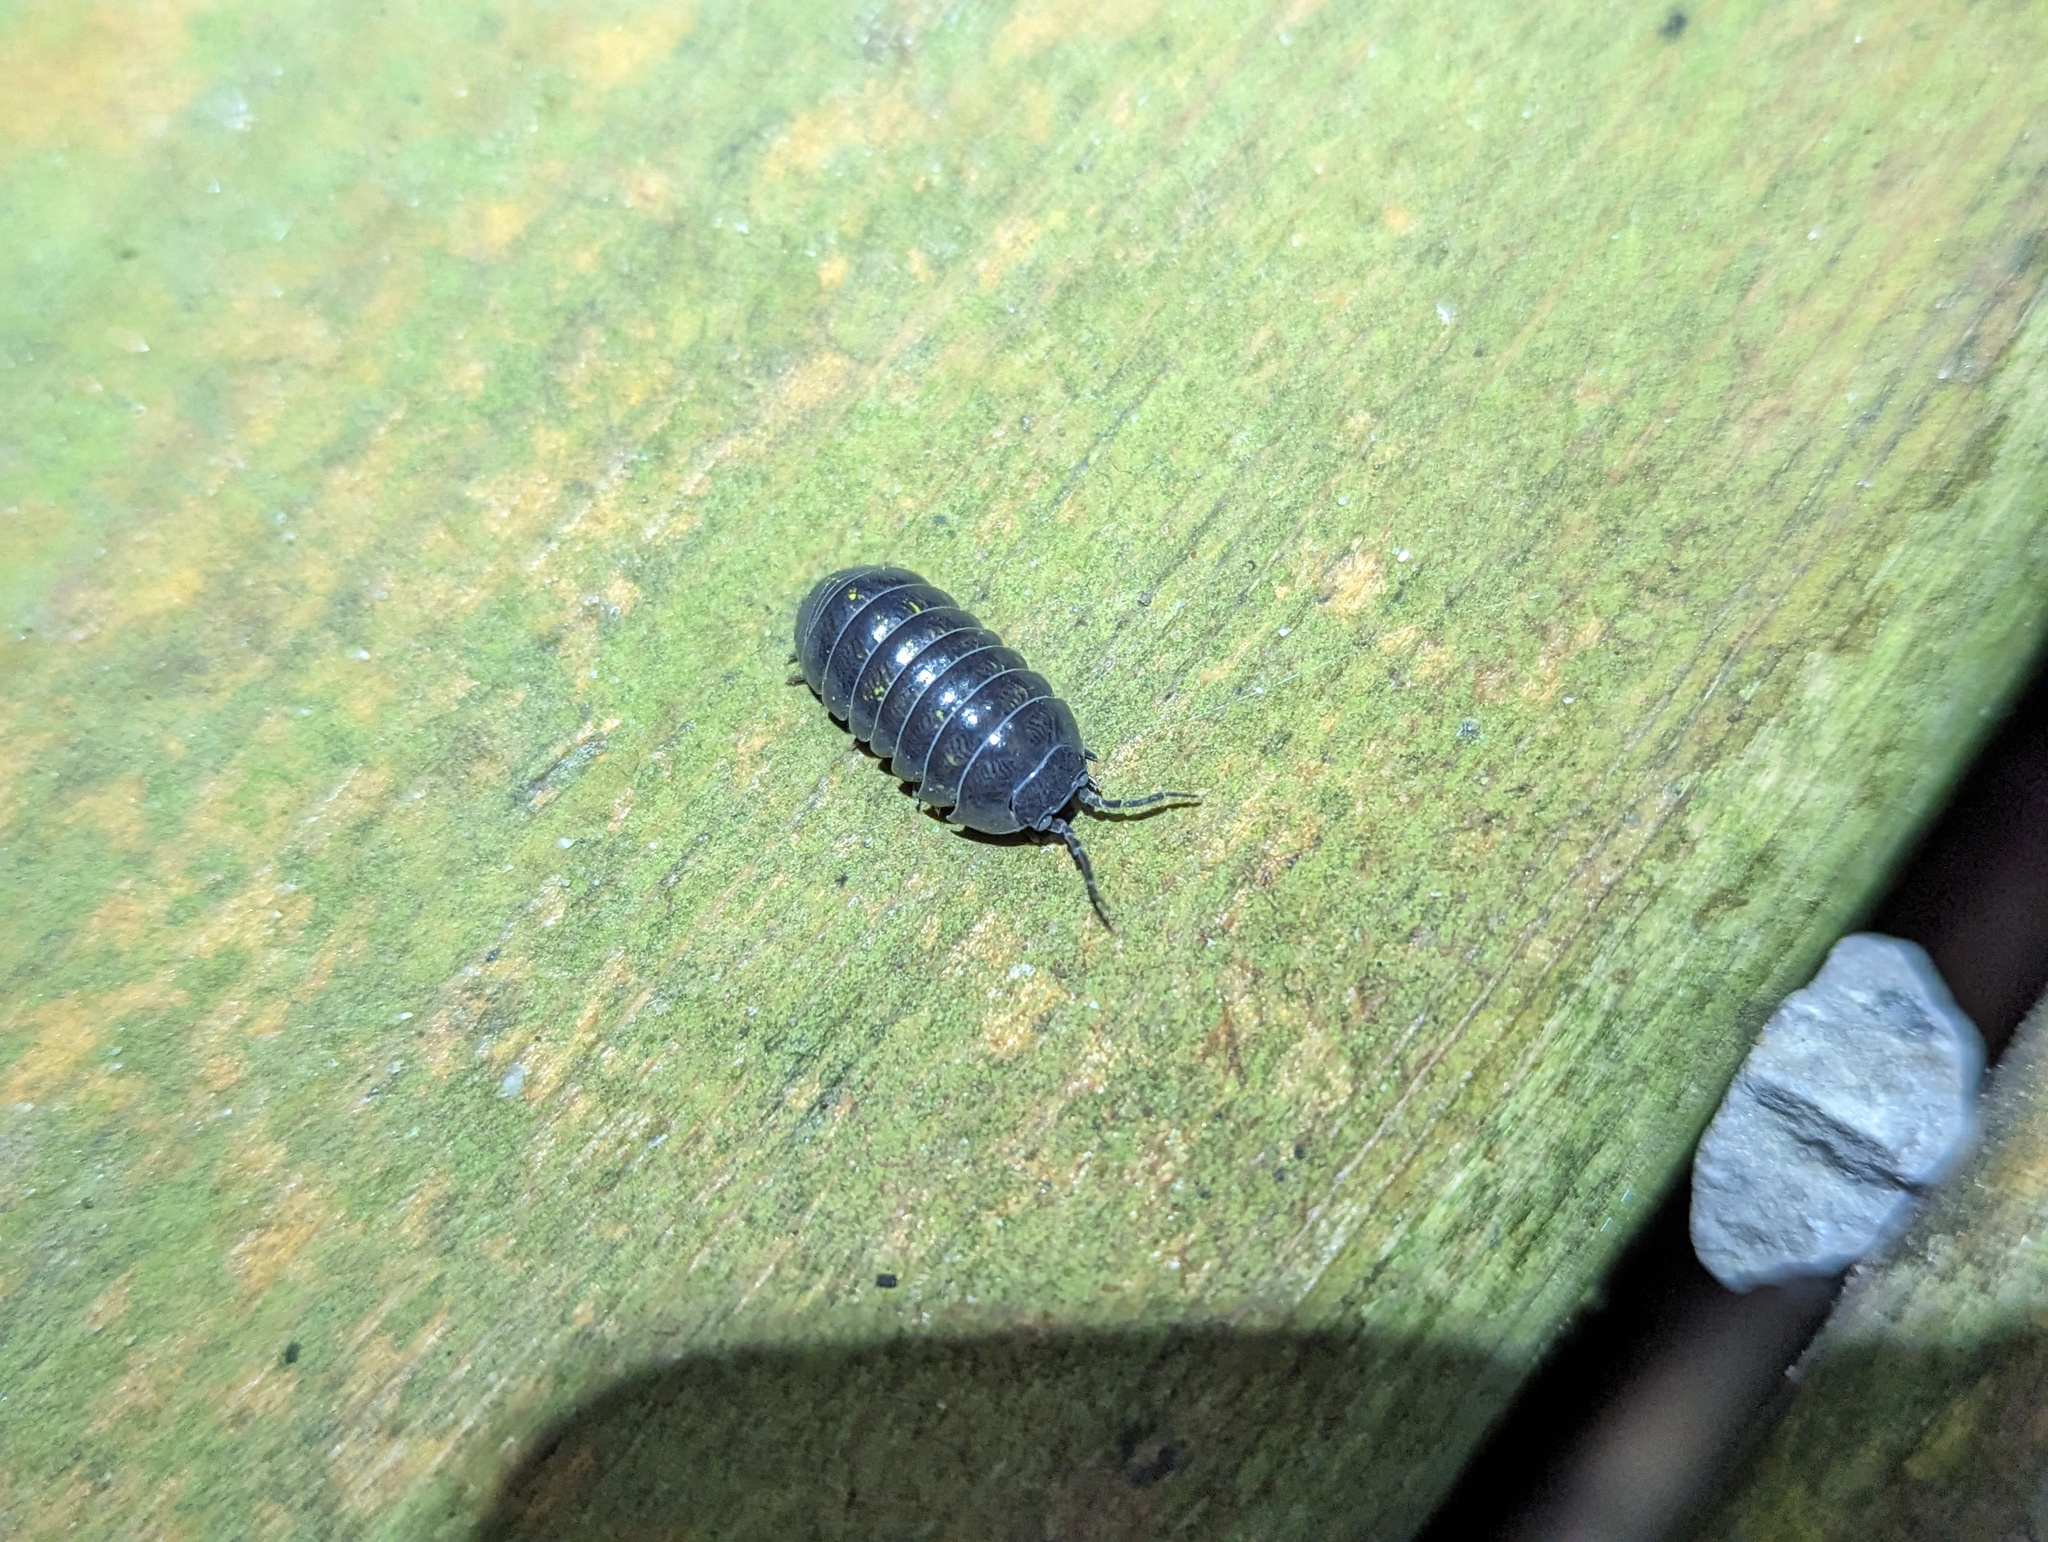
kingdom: Animalia
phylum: Arthropoda
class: Malacostraca
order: Isopoda
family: Armadillidiidae
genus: Armadillidium
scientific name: Armadillidium vulgare
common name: Common pill woodlouse
